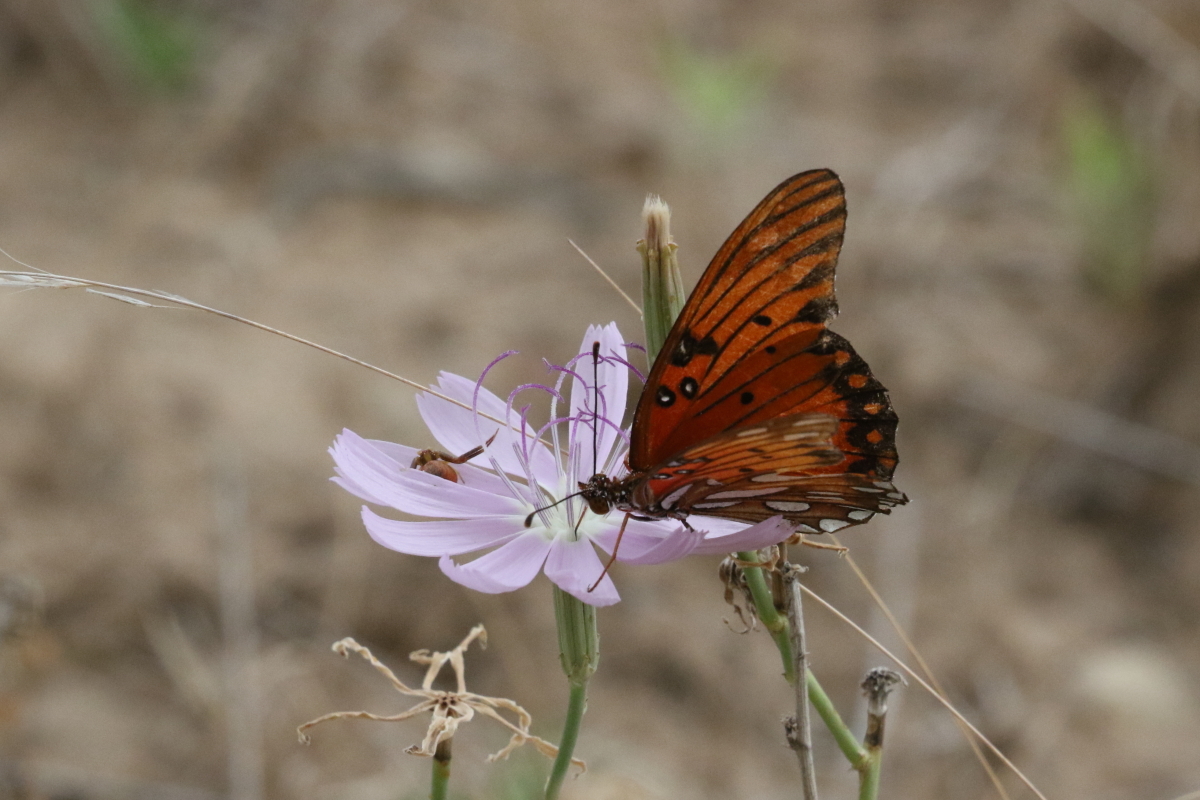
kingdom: Animalia
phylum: Arthropoda
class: Insecta
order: Lepidoptera
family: Nymphalidae
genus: Dione
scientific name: Dione vanillae
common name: Gulf fritillary
